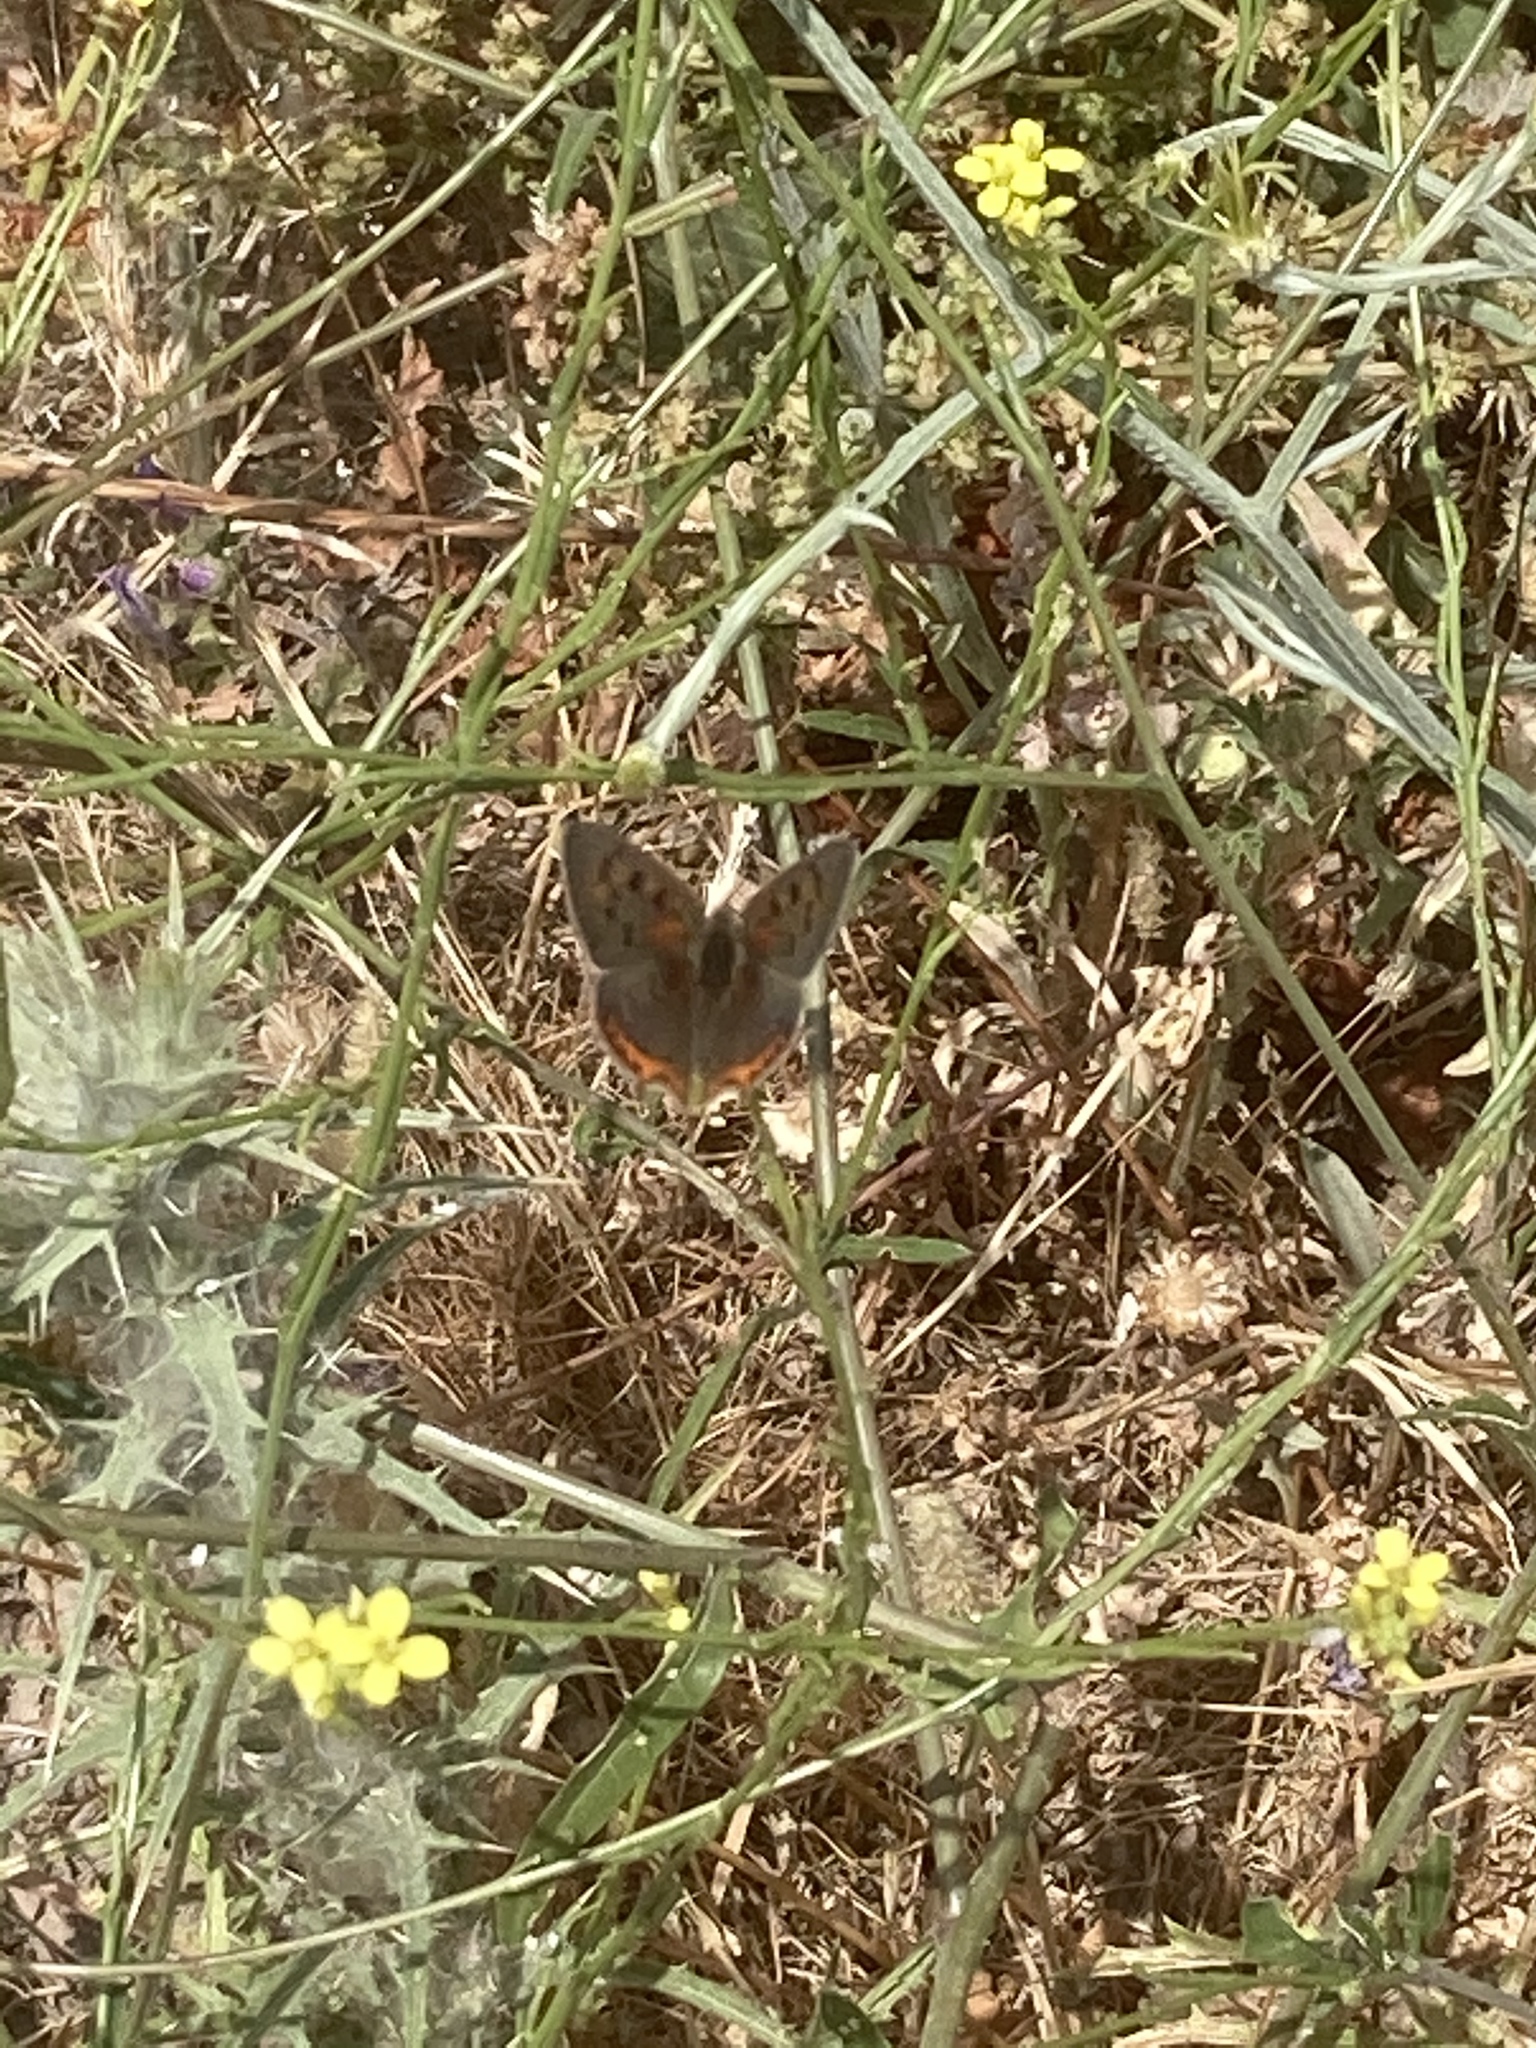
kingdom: Animalia
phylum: Arthropoda
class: Insecta
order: Lepidoptera
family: Lycaenidae
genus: Lycaena
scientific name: Lycaena phlaeas
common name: Small copper
